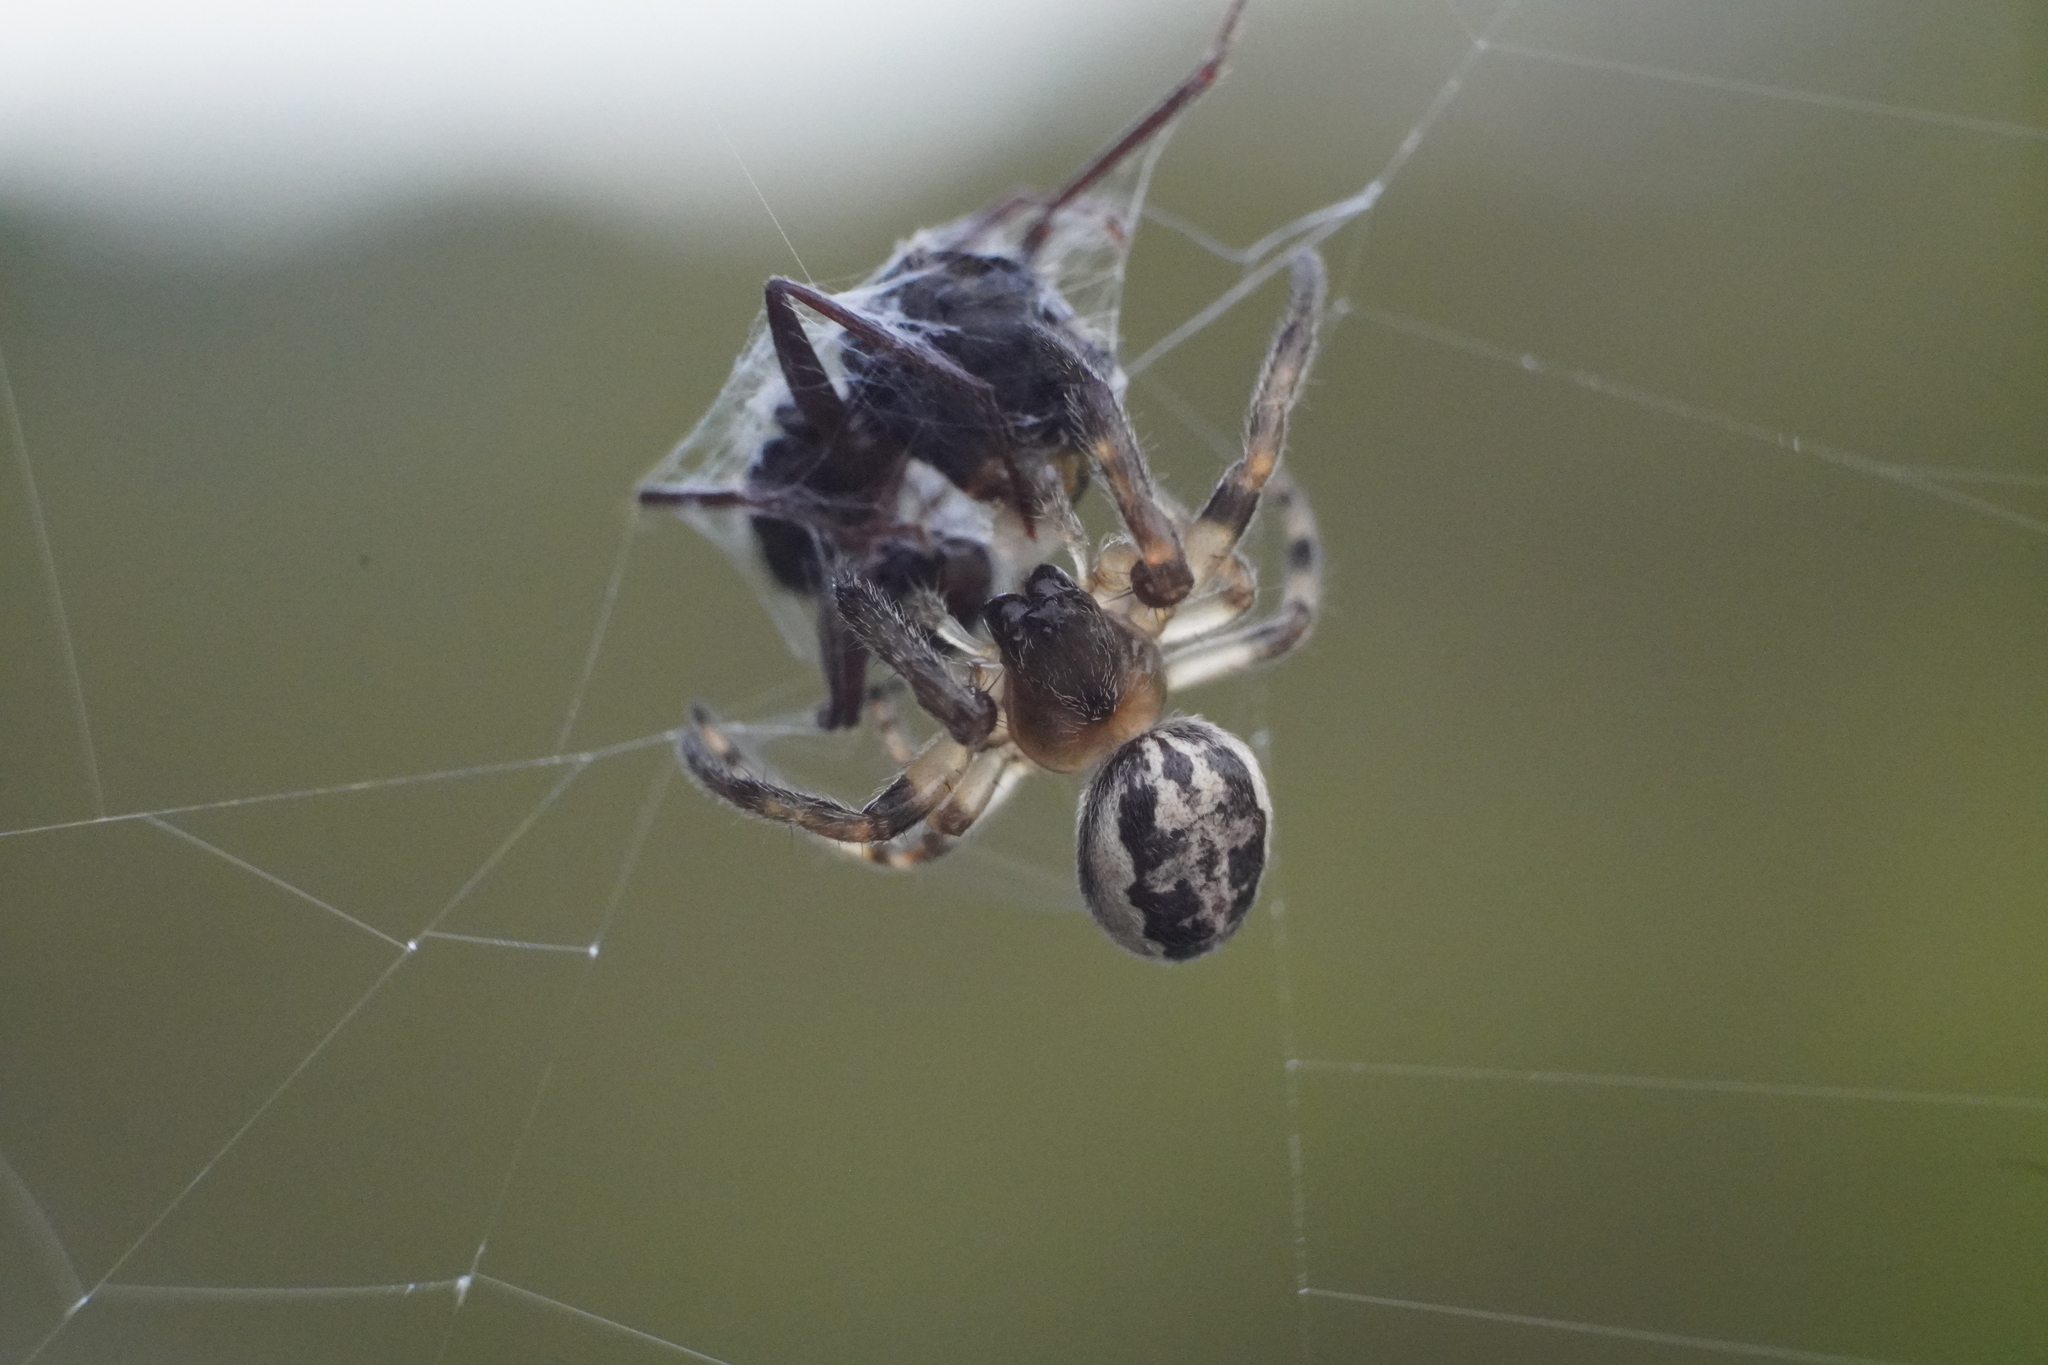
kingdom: Animalia
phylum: Arthropoda
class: Arachnida
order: Araneae
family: Araneidae
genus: Larinioides
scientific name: Larinioides cornutus
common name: Furrow orbweaver
